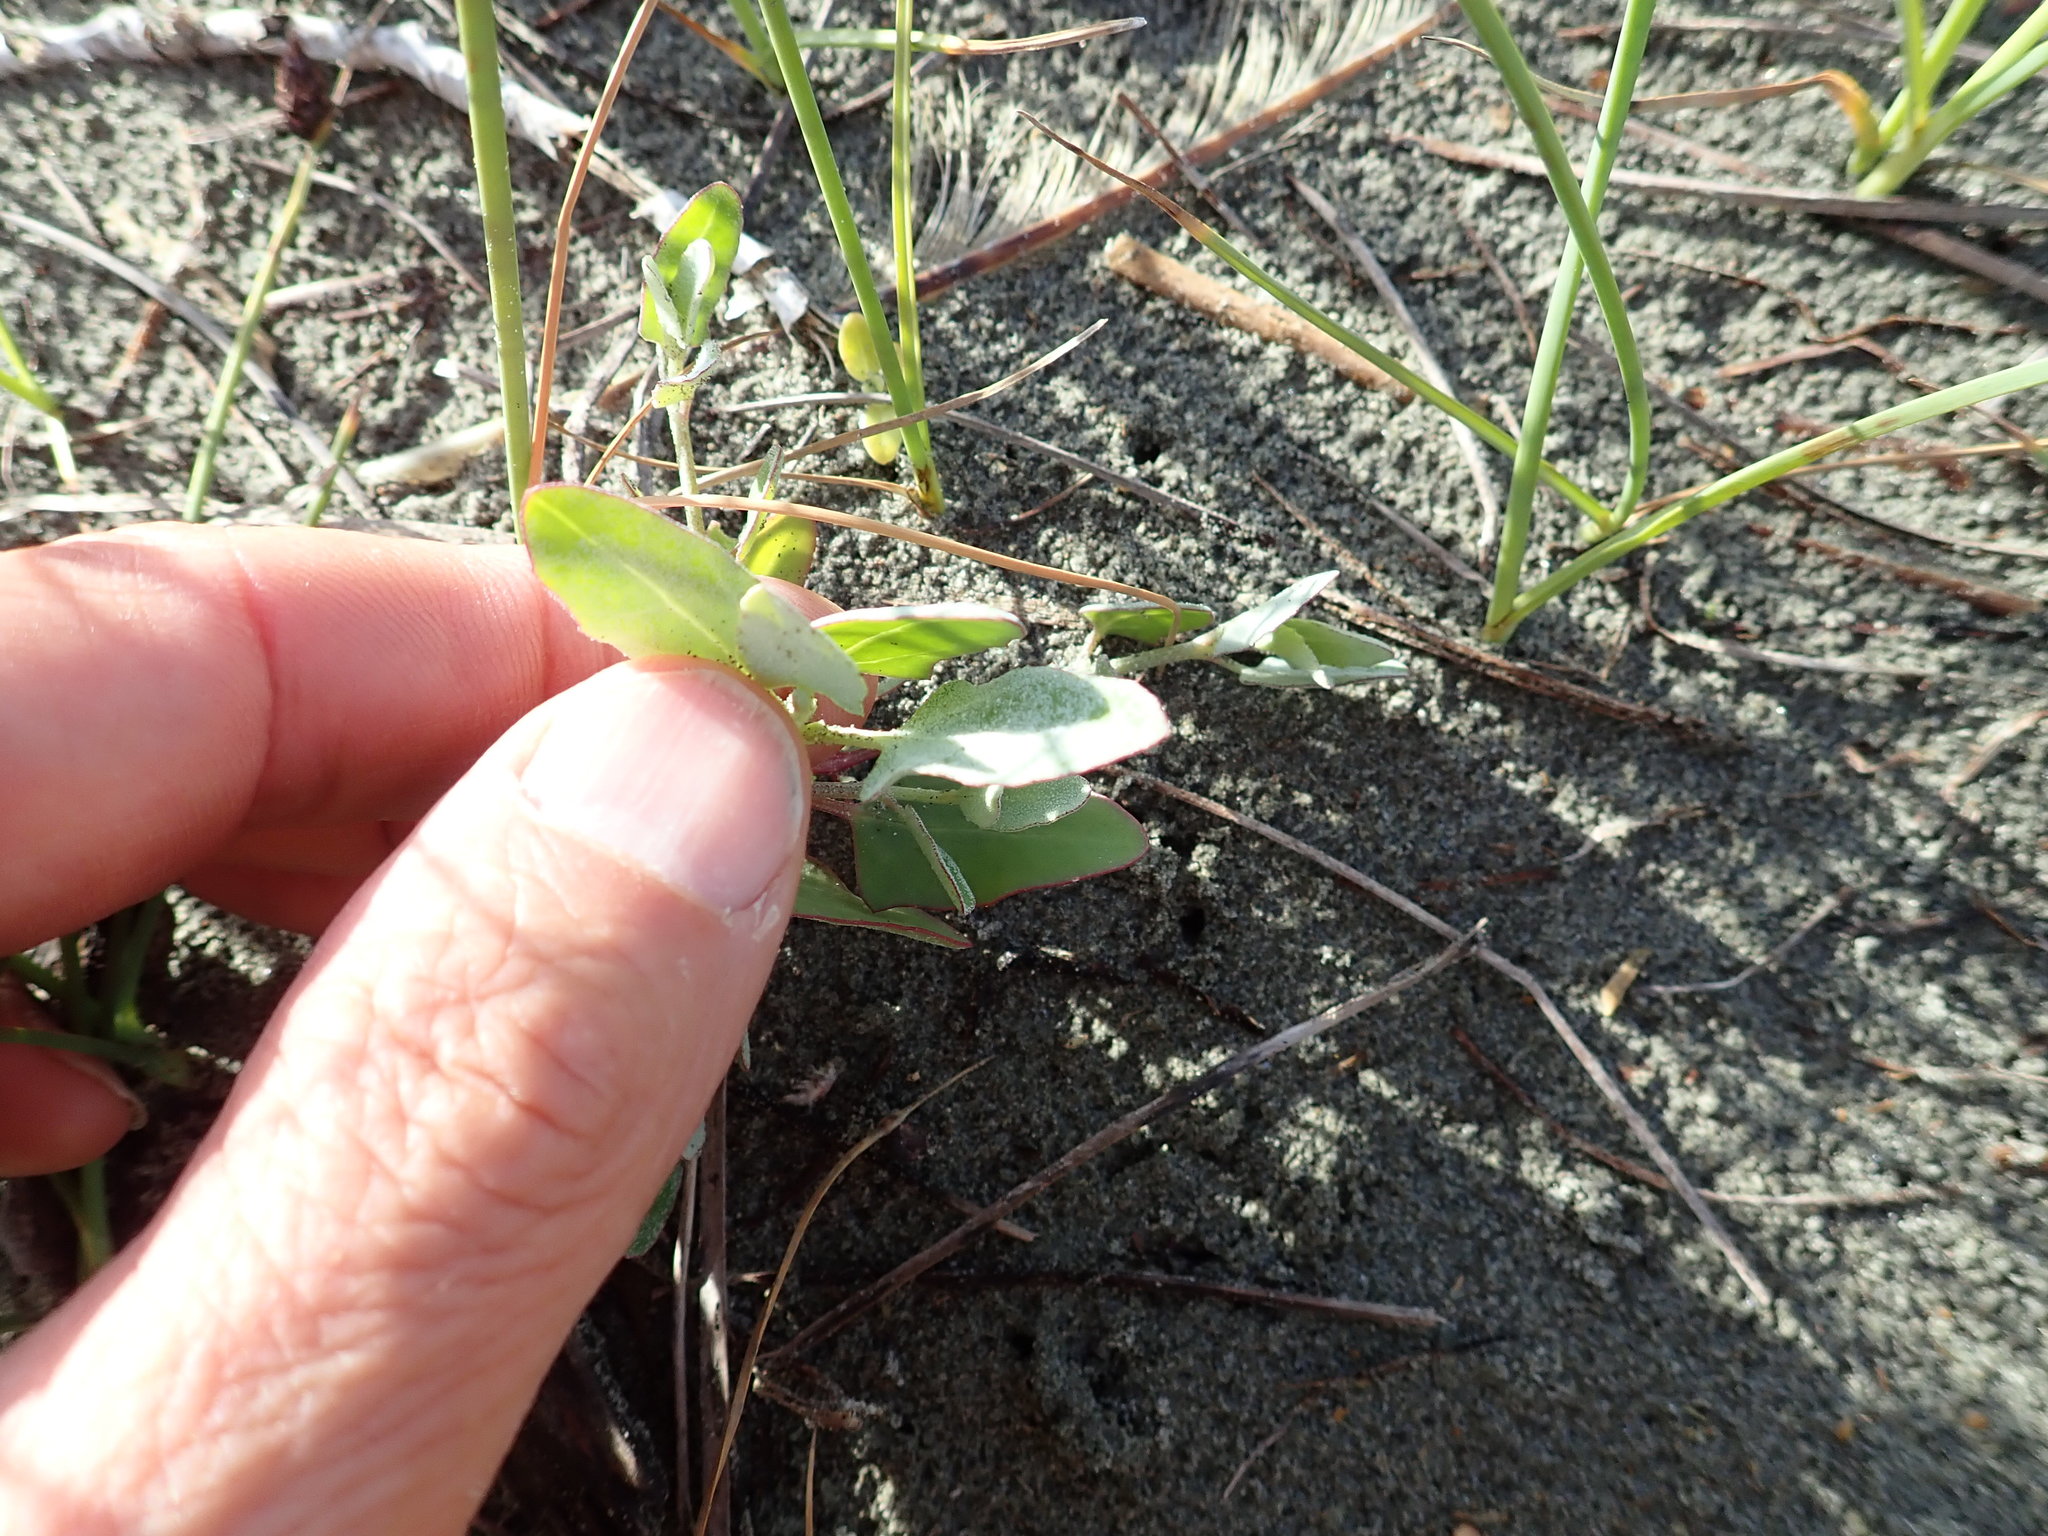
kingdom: Plantae
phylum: Tracheophyta
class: Magnoliopsida
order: Caryophyllales
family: Amaranthaceae
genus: Atriplex
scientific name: Atriplex prostrata
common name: Spear-leaved orache
